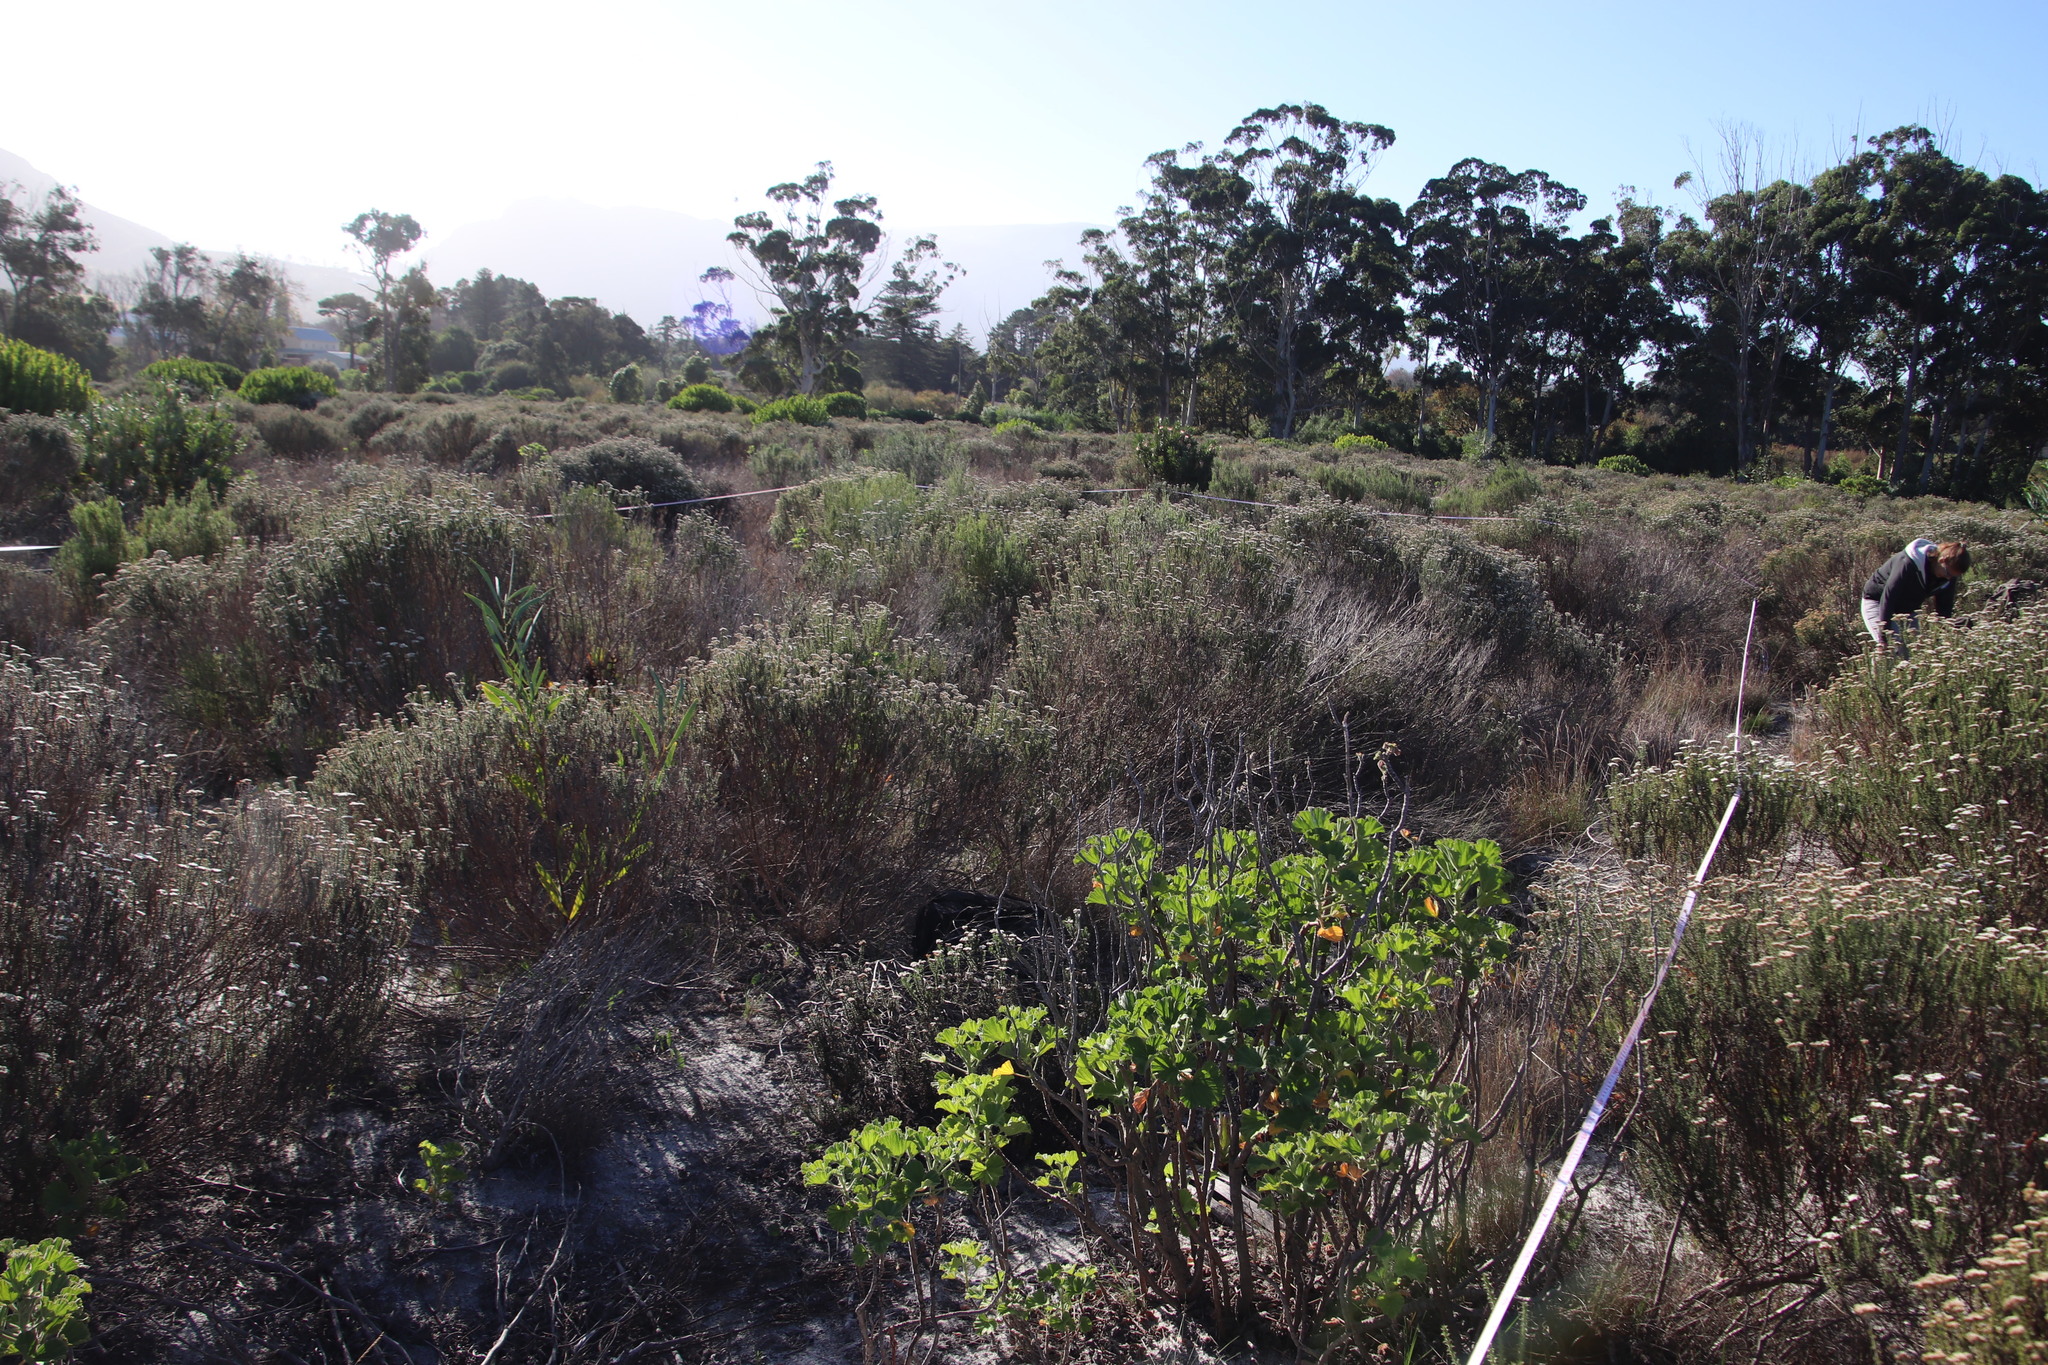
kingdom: Plantae
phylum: Tracheophyta
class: Magnoliopsida
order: Asterales
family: Asteraceae
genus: Metalasia
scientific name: Metalasia densa
